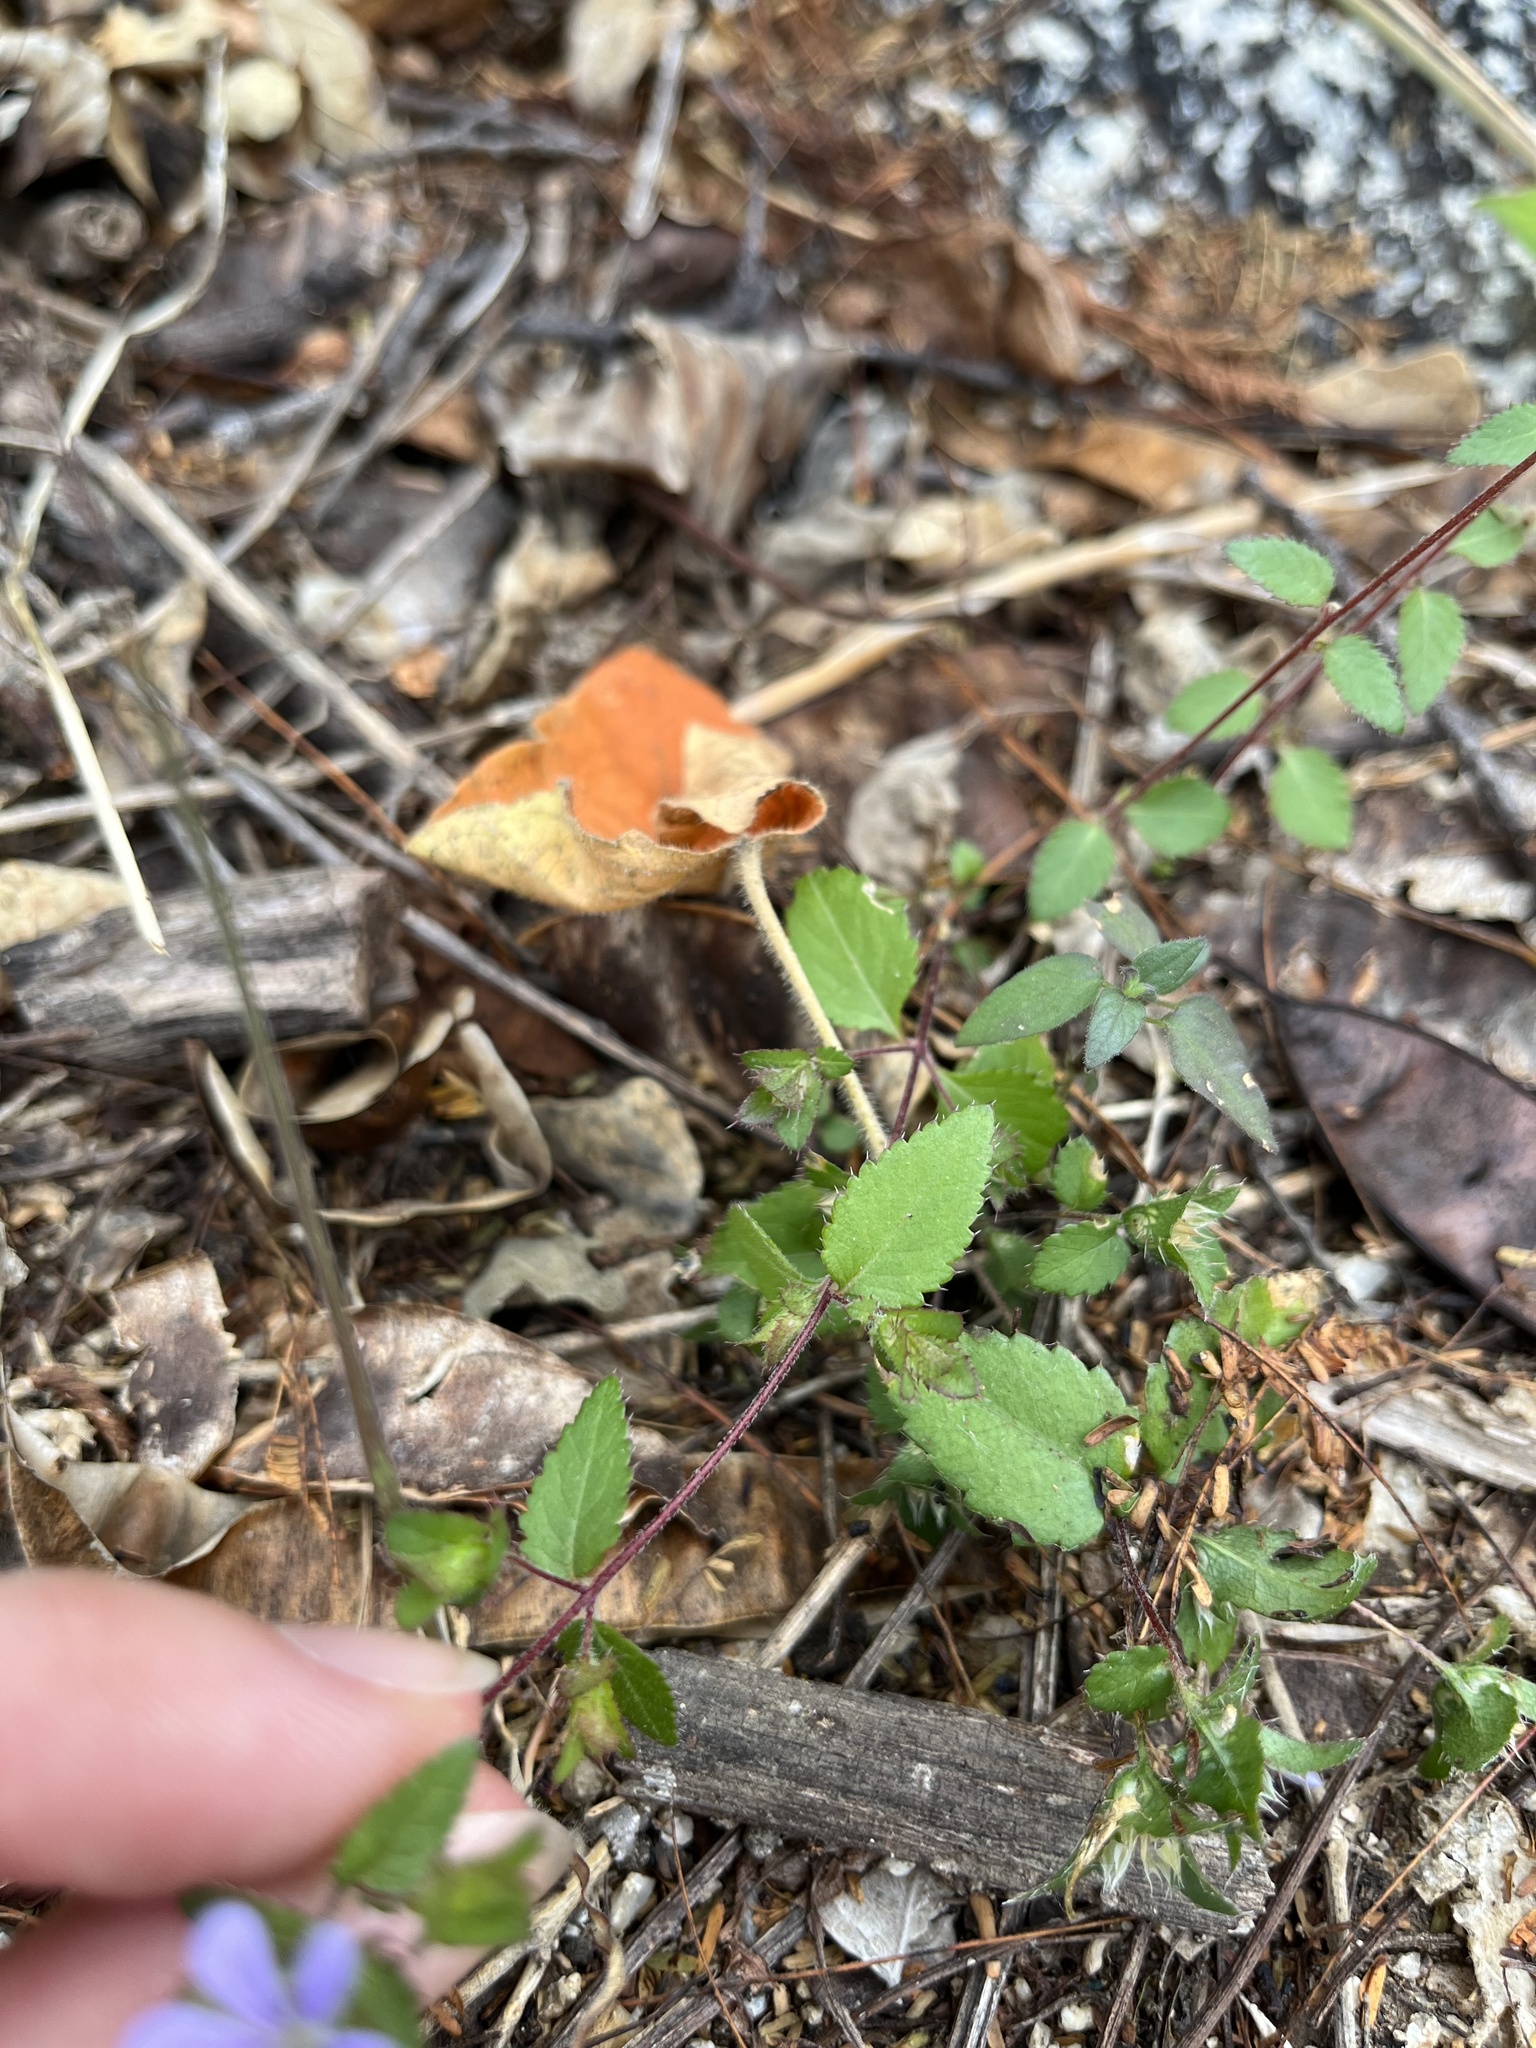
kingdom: Plantae
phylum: Tracheophyta
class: Magnoliopsida
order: Ericales
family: Polemoniaceae
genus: Loeselia
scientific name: Loeselia ciliata
